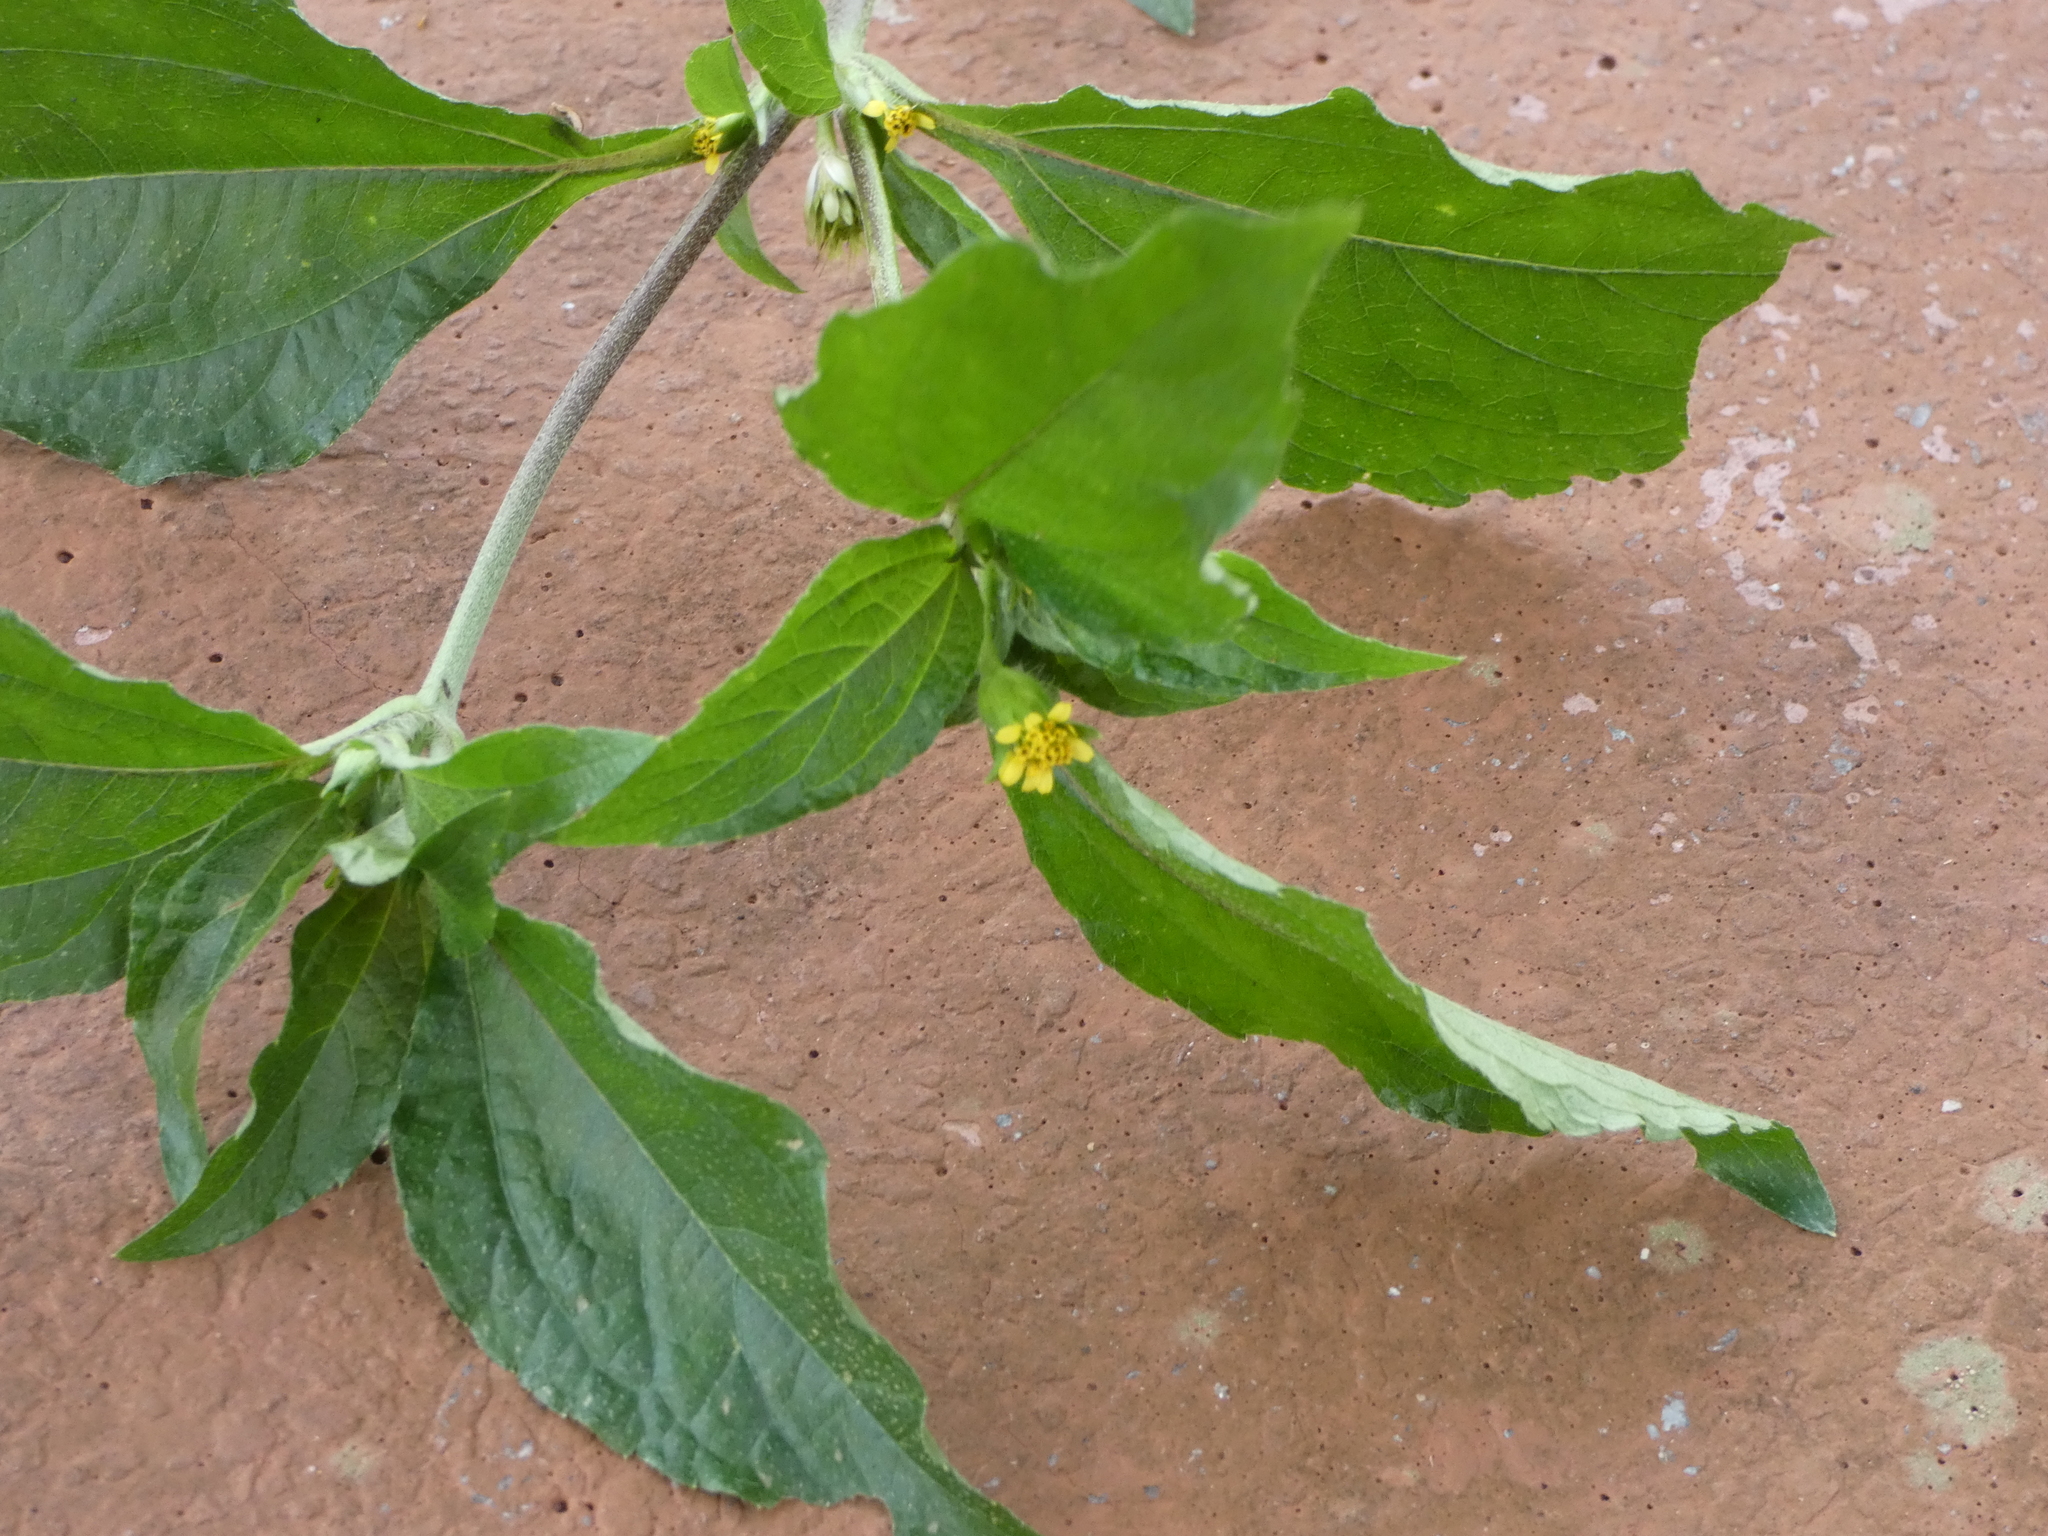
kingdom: Plantae
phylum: Tracheophyta
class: Magnoliopsida
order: Asterales
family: Asteraceae
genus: Synedrella
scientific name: Synedrella nodiflora
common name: Nodeweed
